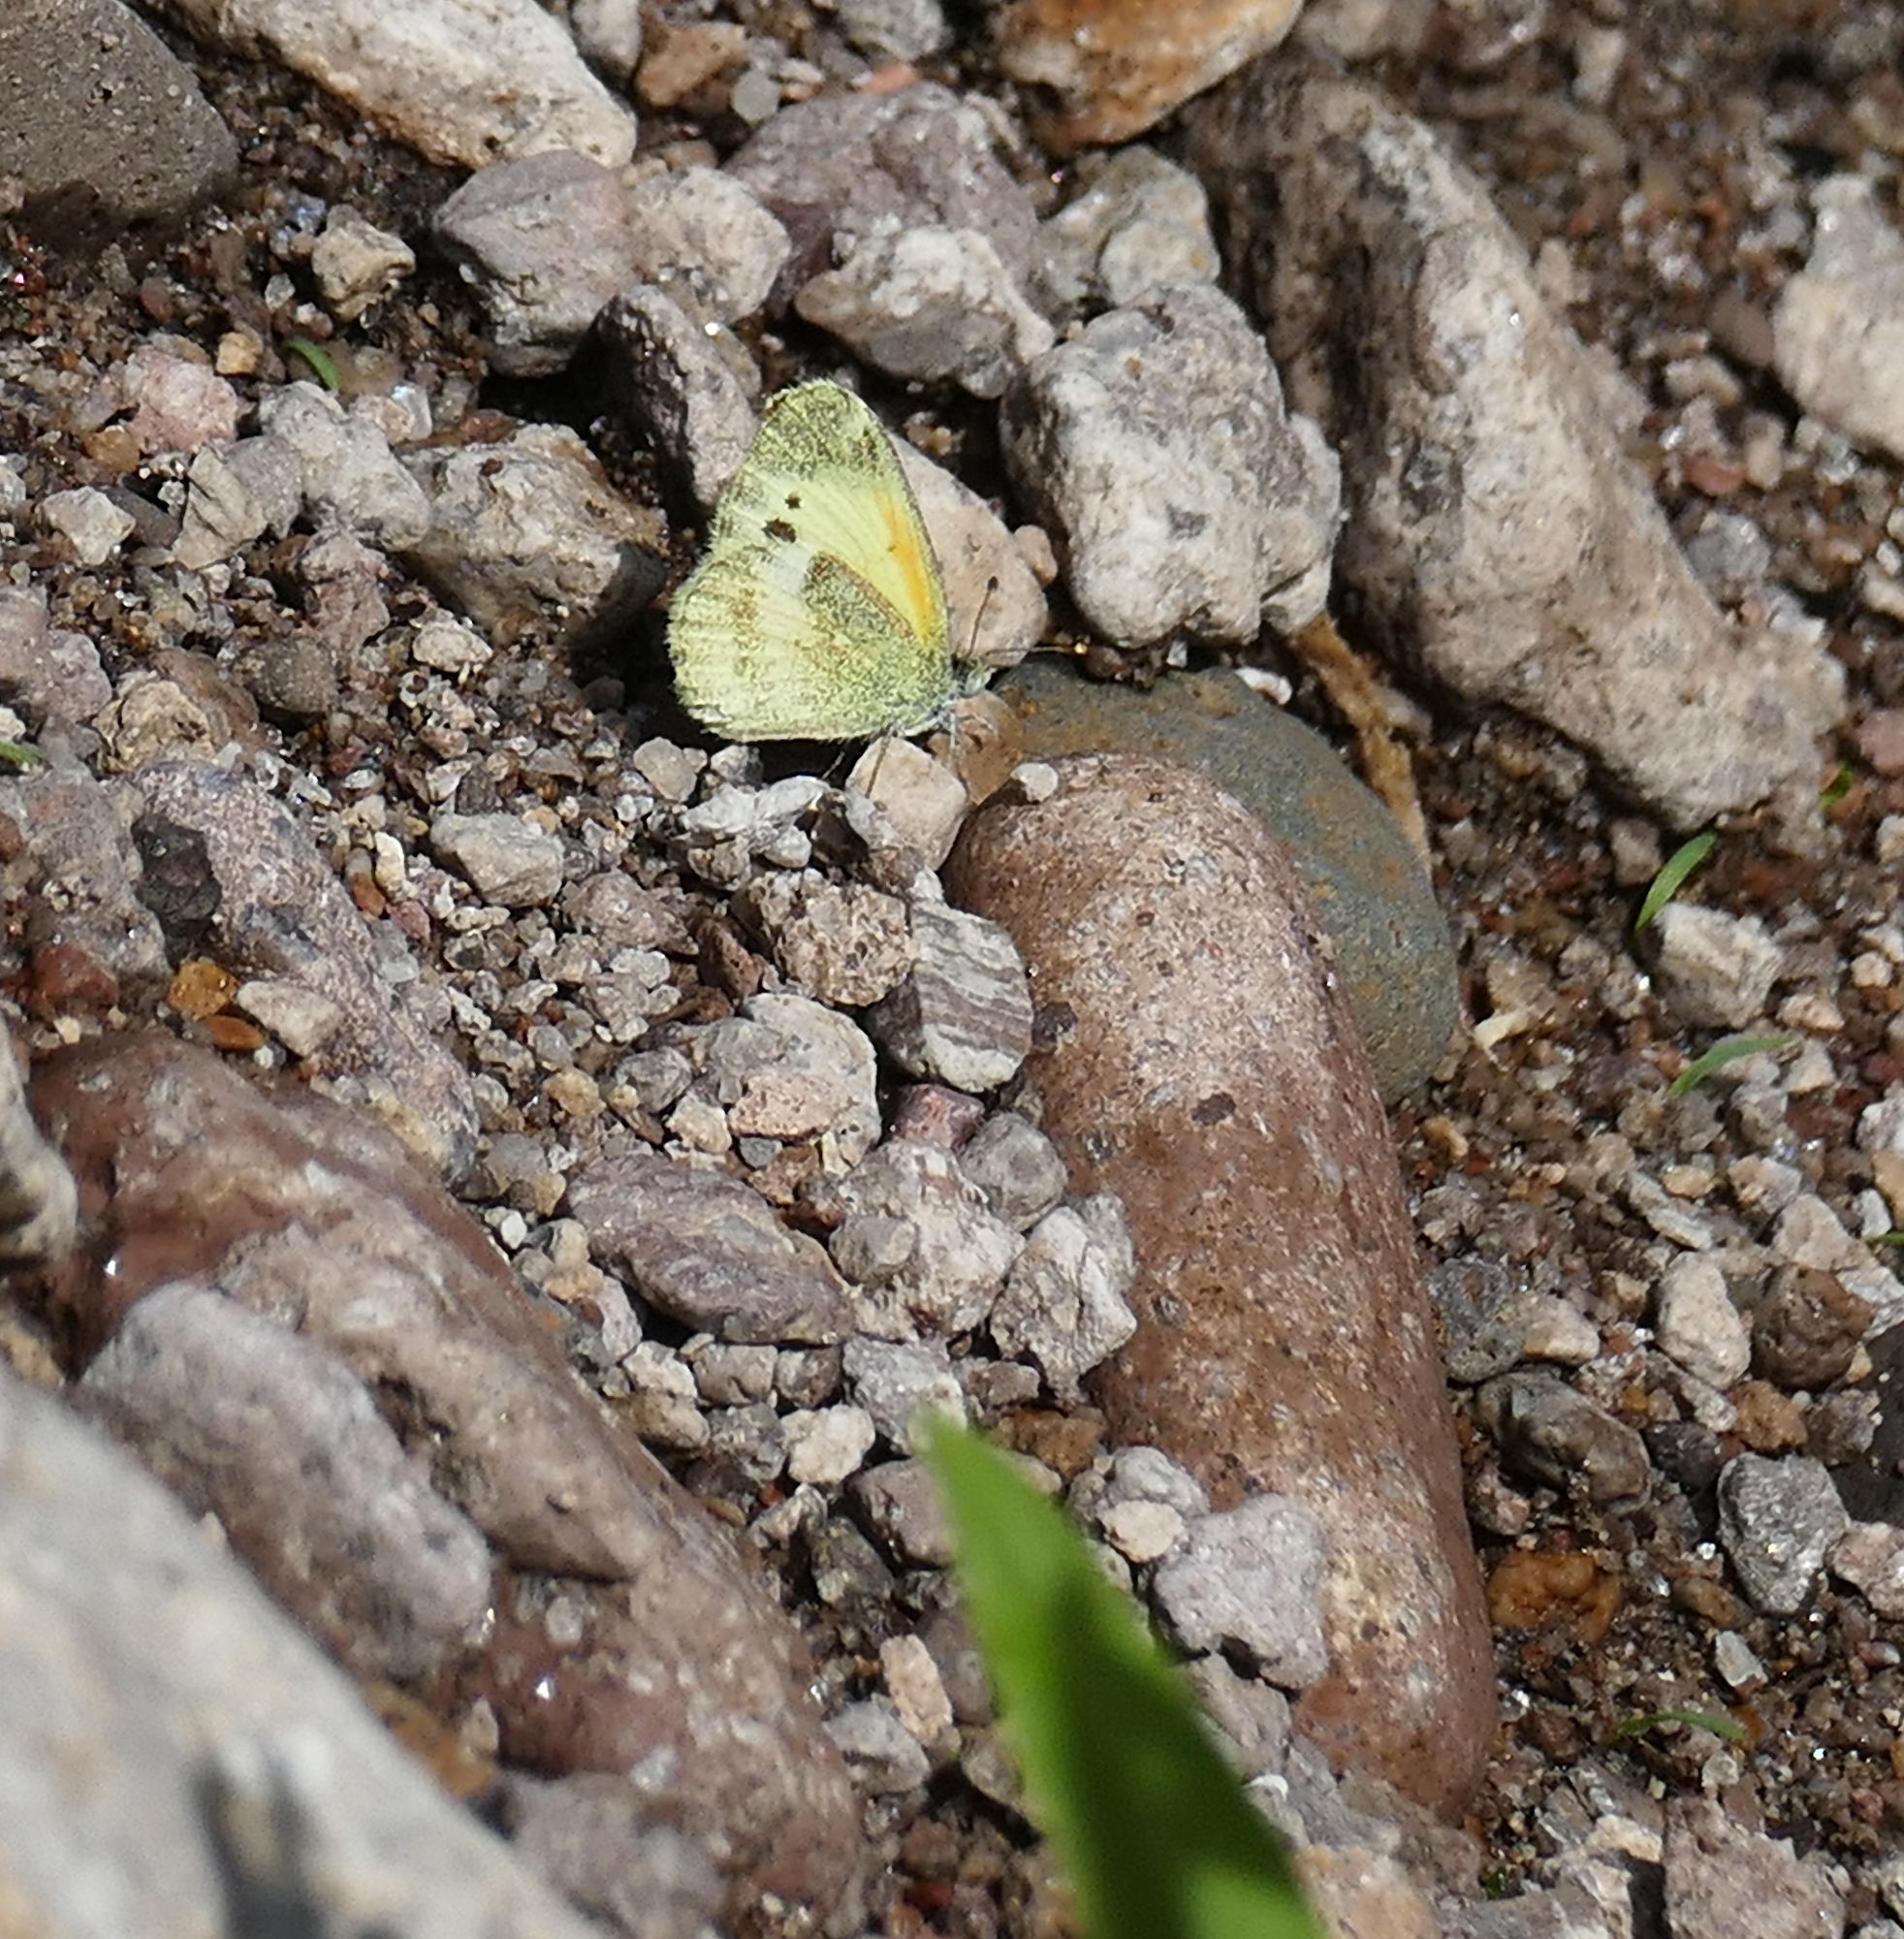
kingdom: Animalia
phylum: Arthropoda
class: Insecta
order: Lepidoptera
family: Pieridae
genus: Nathalis
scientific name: Nathalis iole
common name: Dainty sulphur
